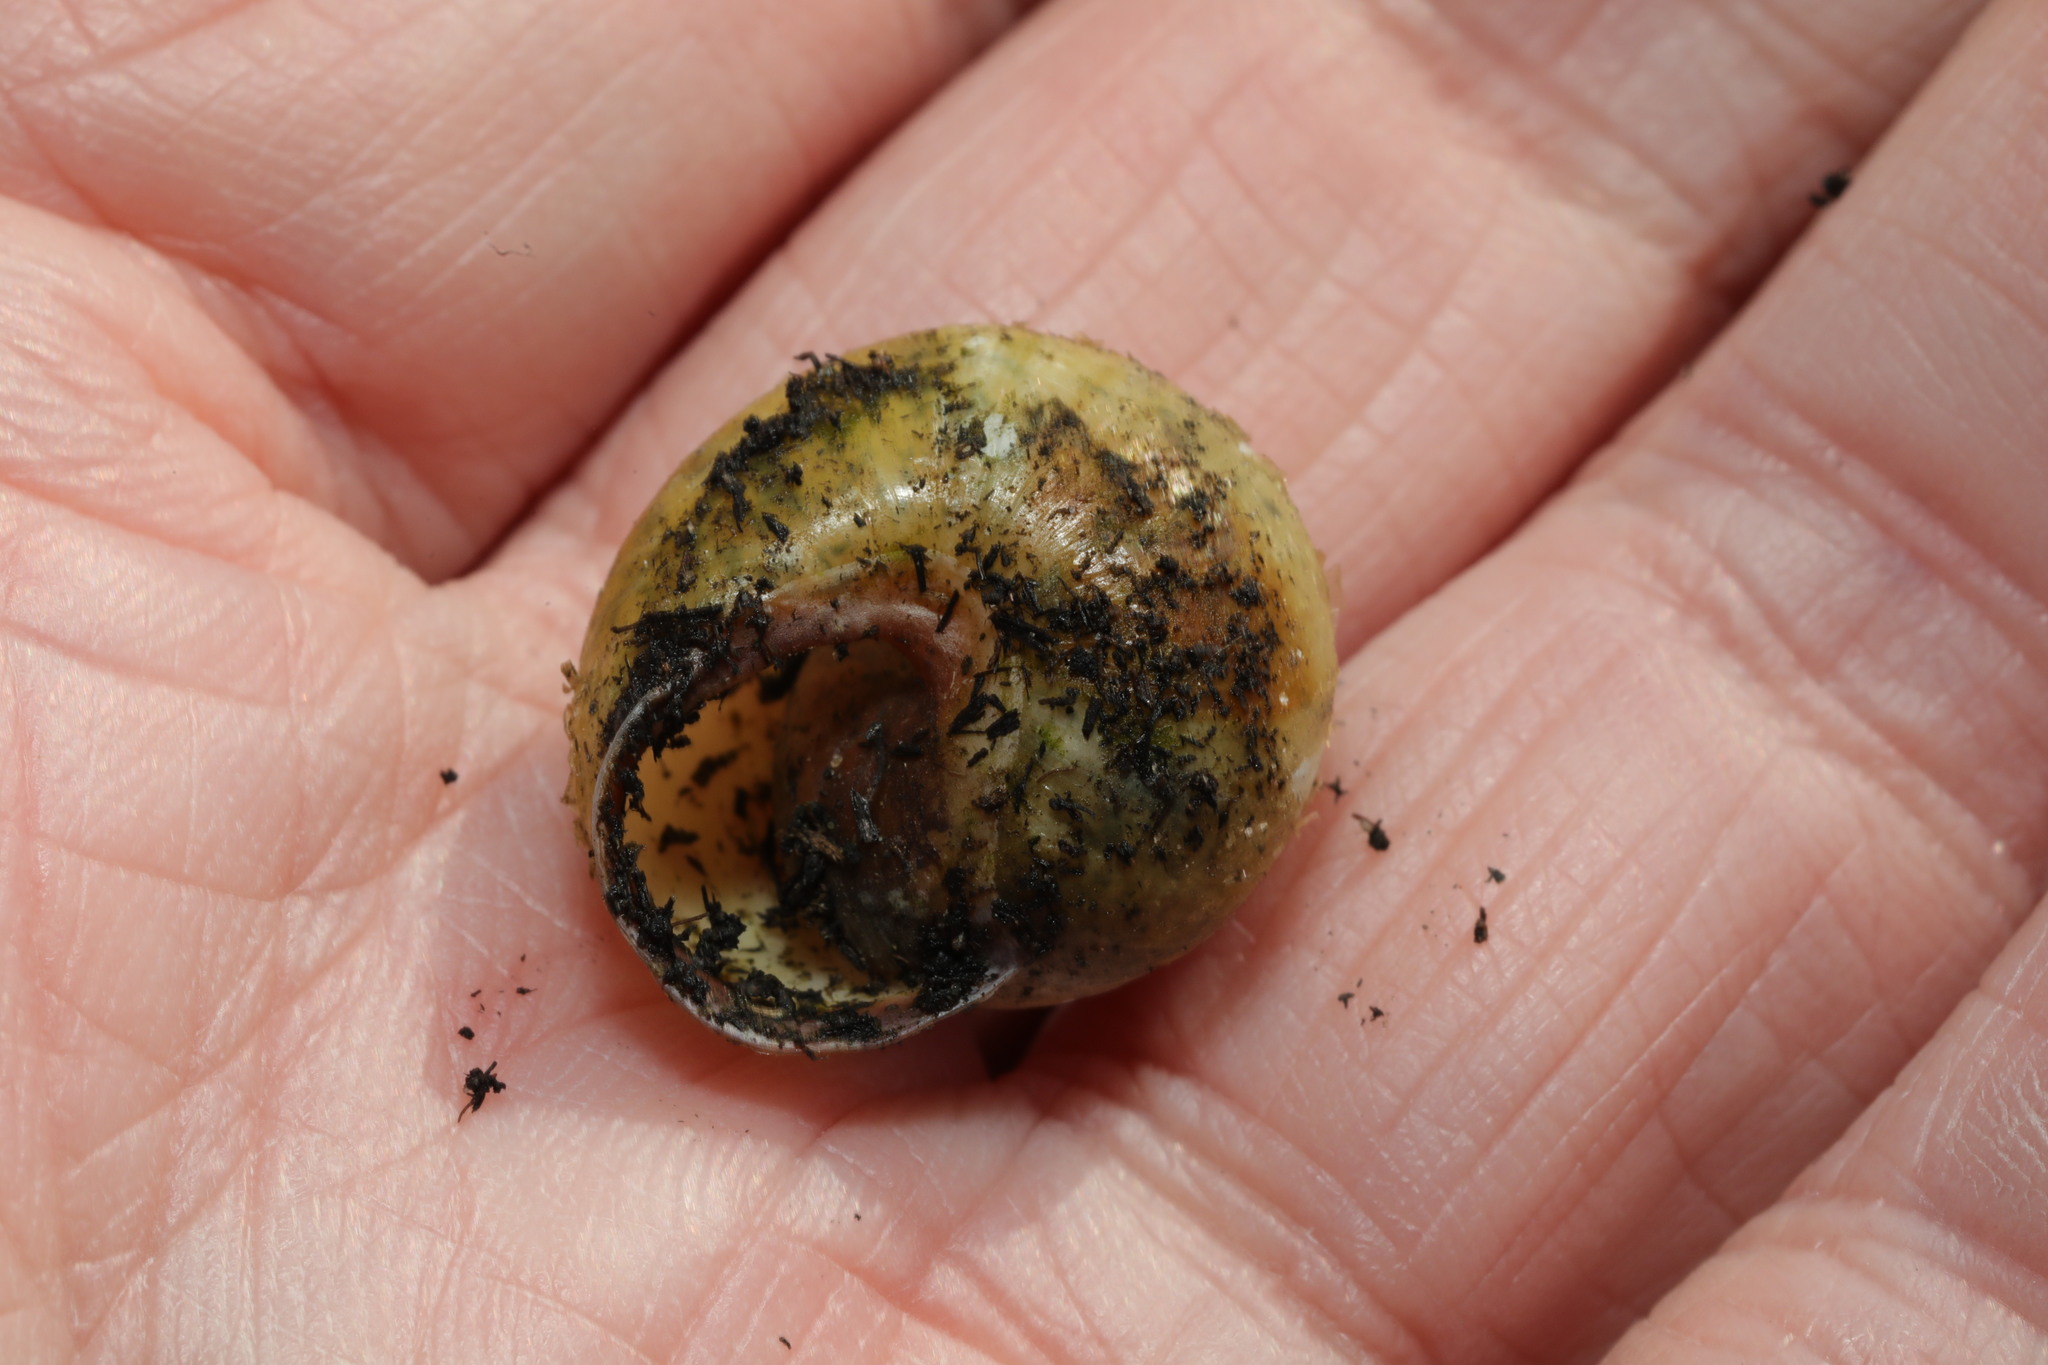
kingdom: Animalia
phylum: Mollusca
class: Gastropoda
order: Stylommatophora
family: Helicidae
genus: Cepaea
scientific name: Cepaea nemoralis
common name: Grovesnail
